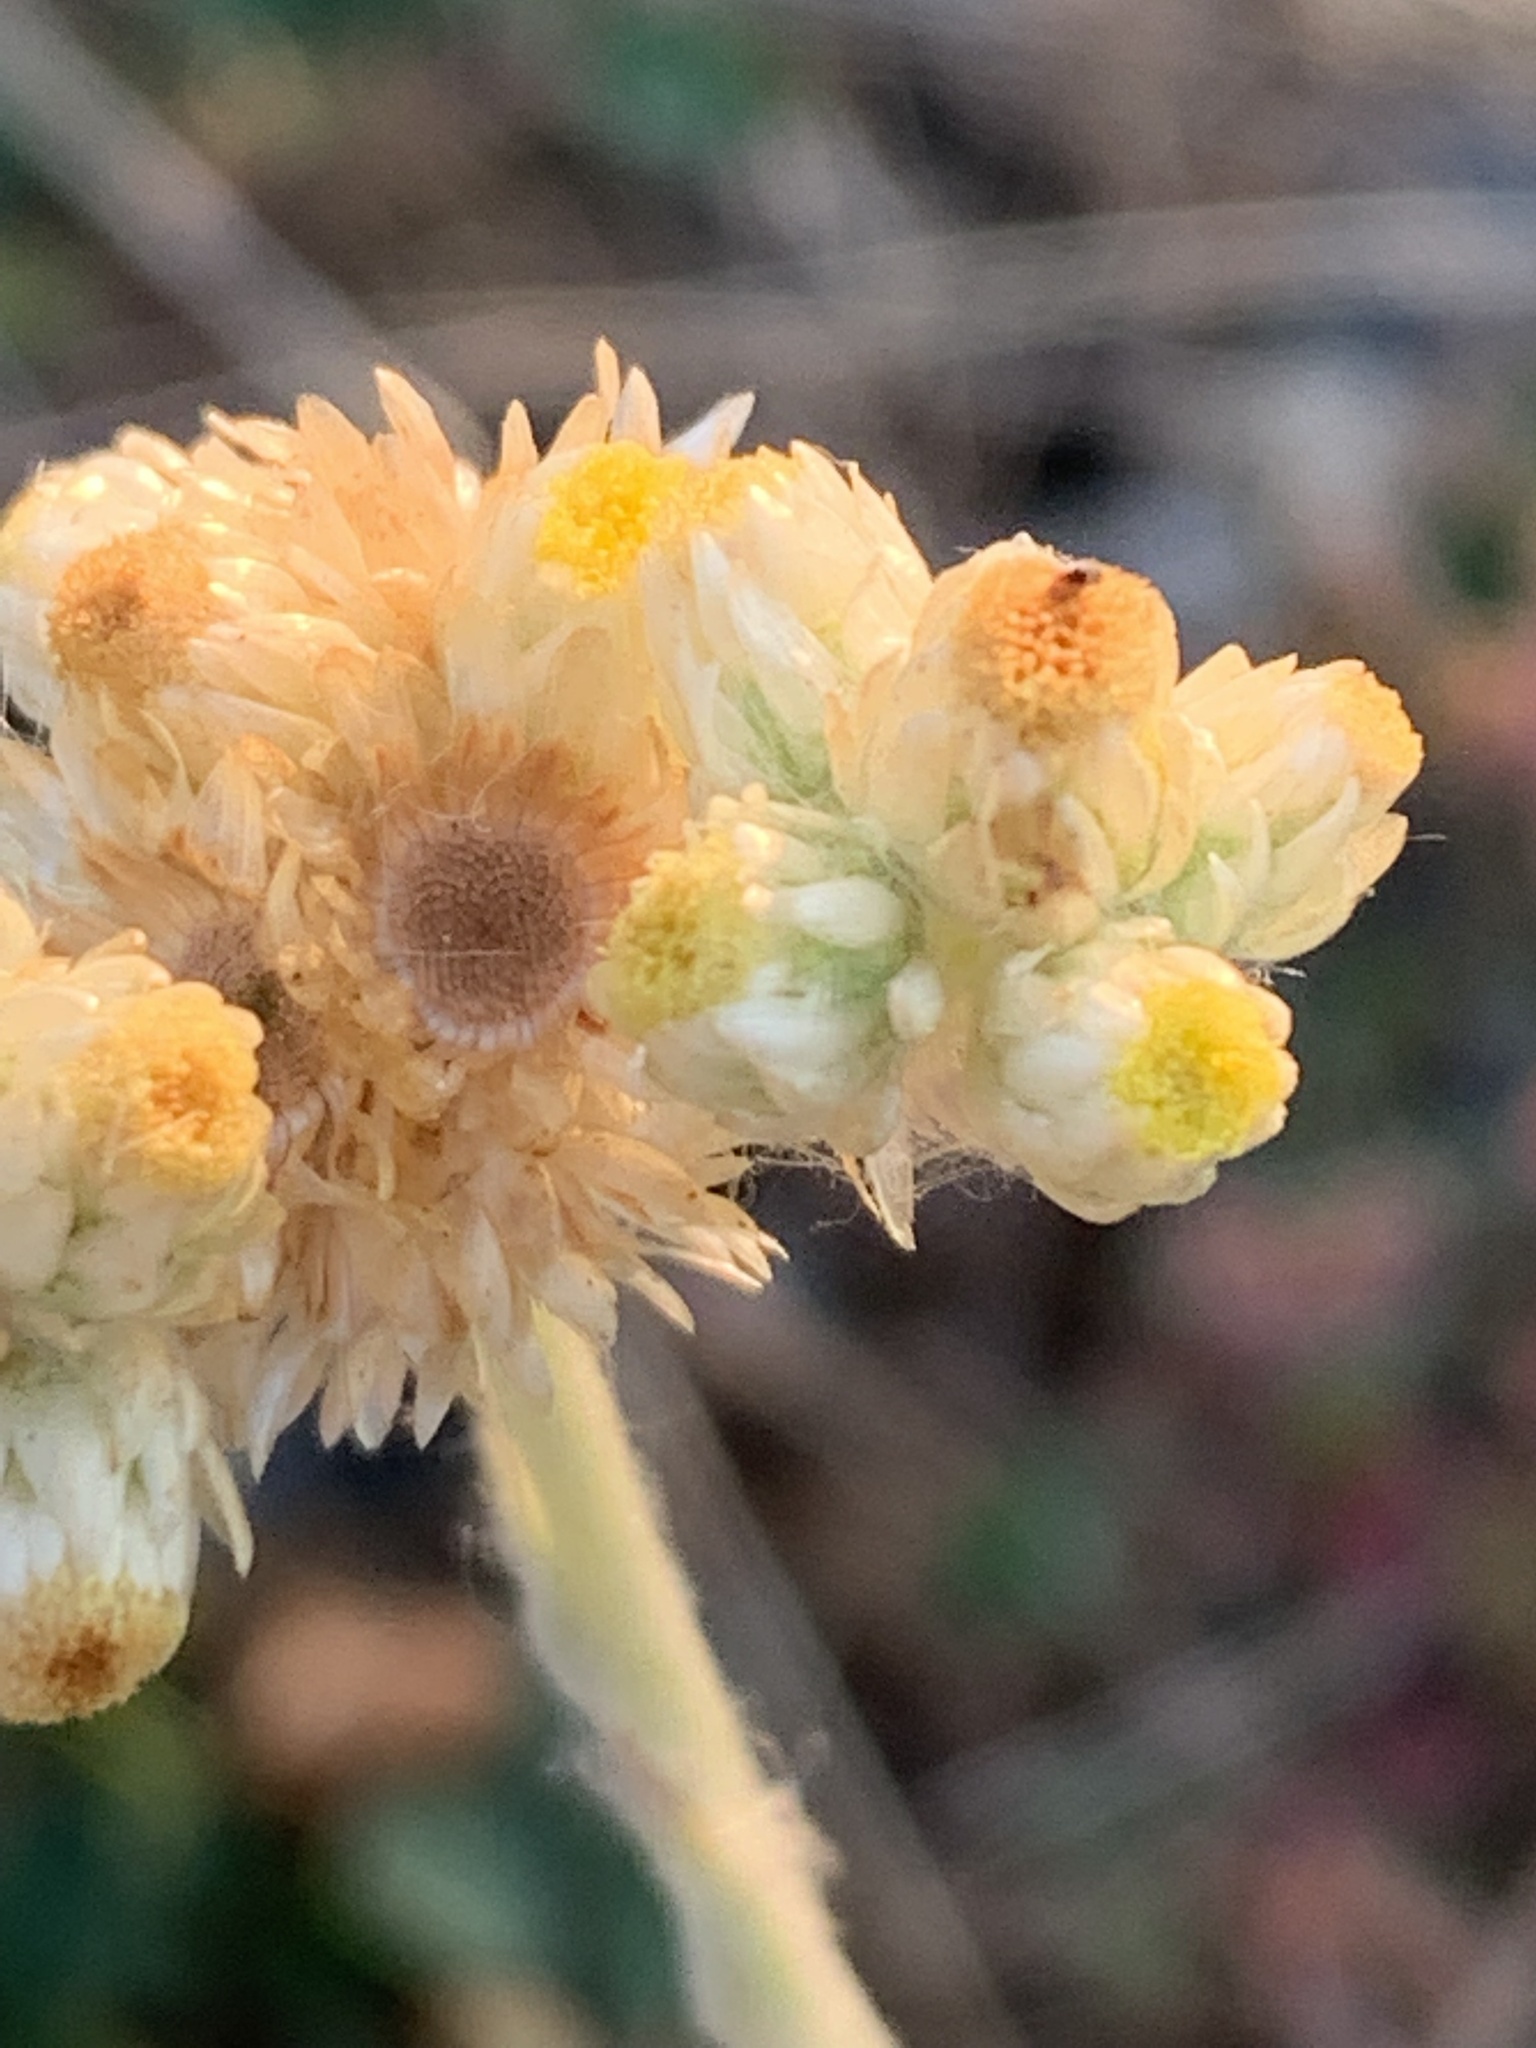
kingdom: Plantae
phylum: Tracheophyta
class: Magnoliopsida
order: Asterales
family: Asteraceae
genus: Pseudognaphalium
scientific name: Pseudognaphalium stramineum
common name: Cotton-batting-plant
